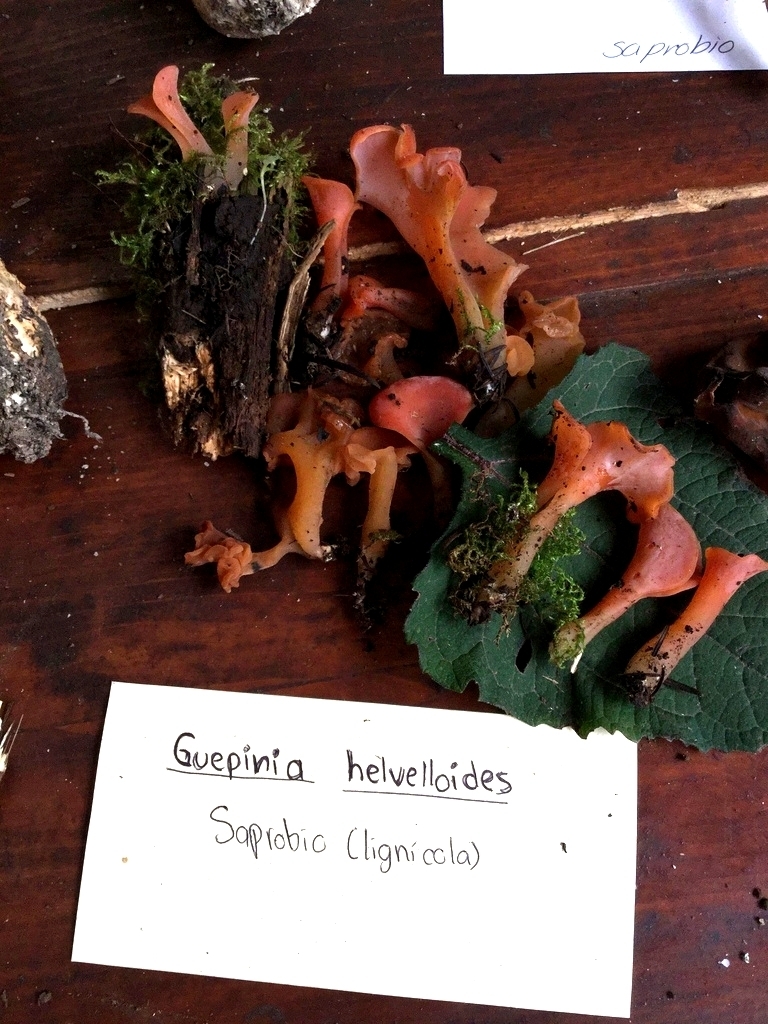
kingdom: Fungi
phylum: Basidiomycota
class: Agaricomycetes
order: Auriculariales
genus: Guepinia
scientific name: Guepinia helvelloides
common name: Salmon salad
